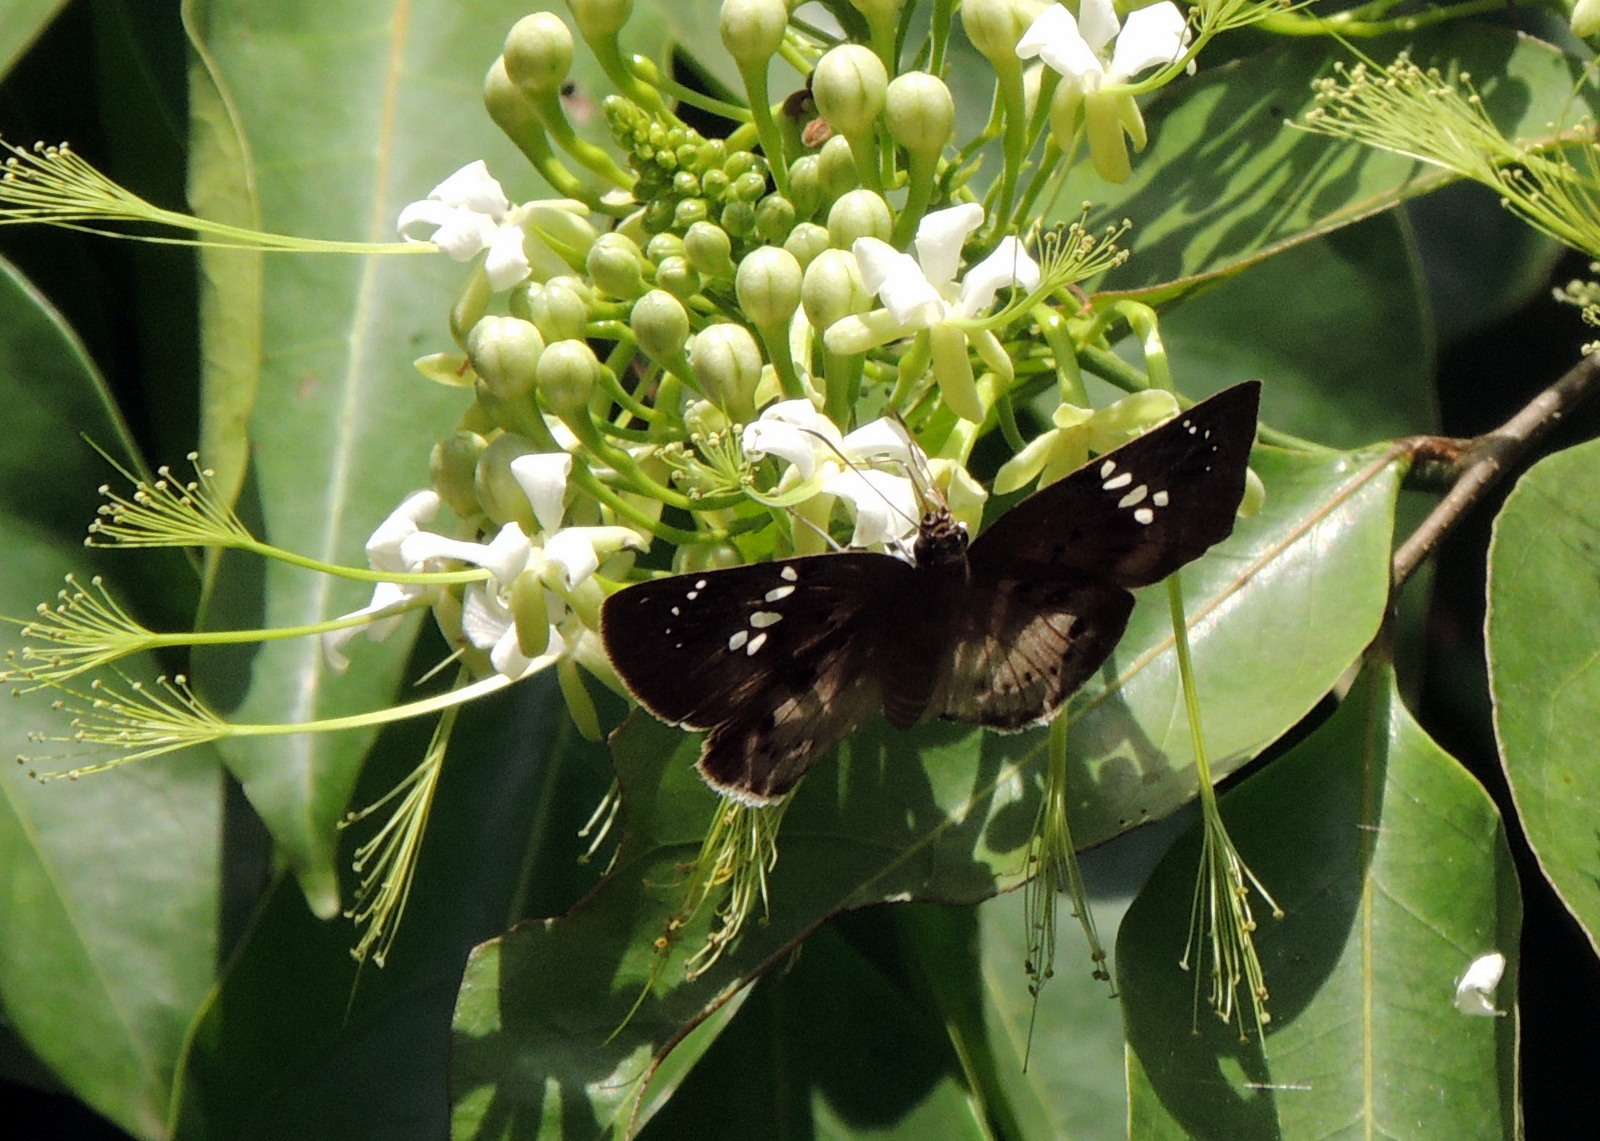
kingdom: Animalia
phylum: Arthropoda
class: Insecta
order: Lepidoptera
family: Hesperiidae
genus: Tagiades
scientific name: Tagiades flesus
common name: Clouded flat
